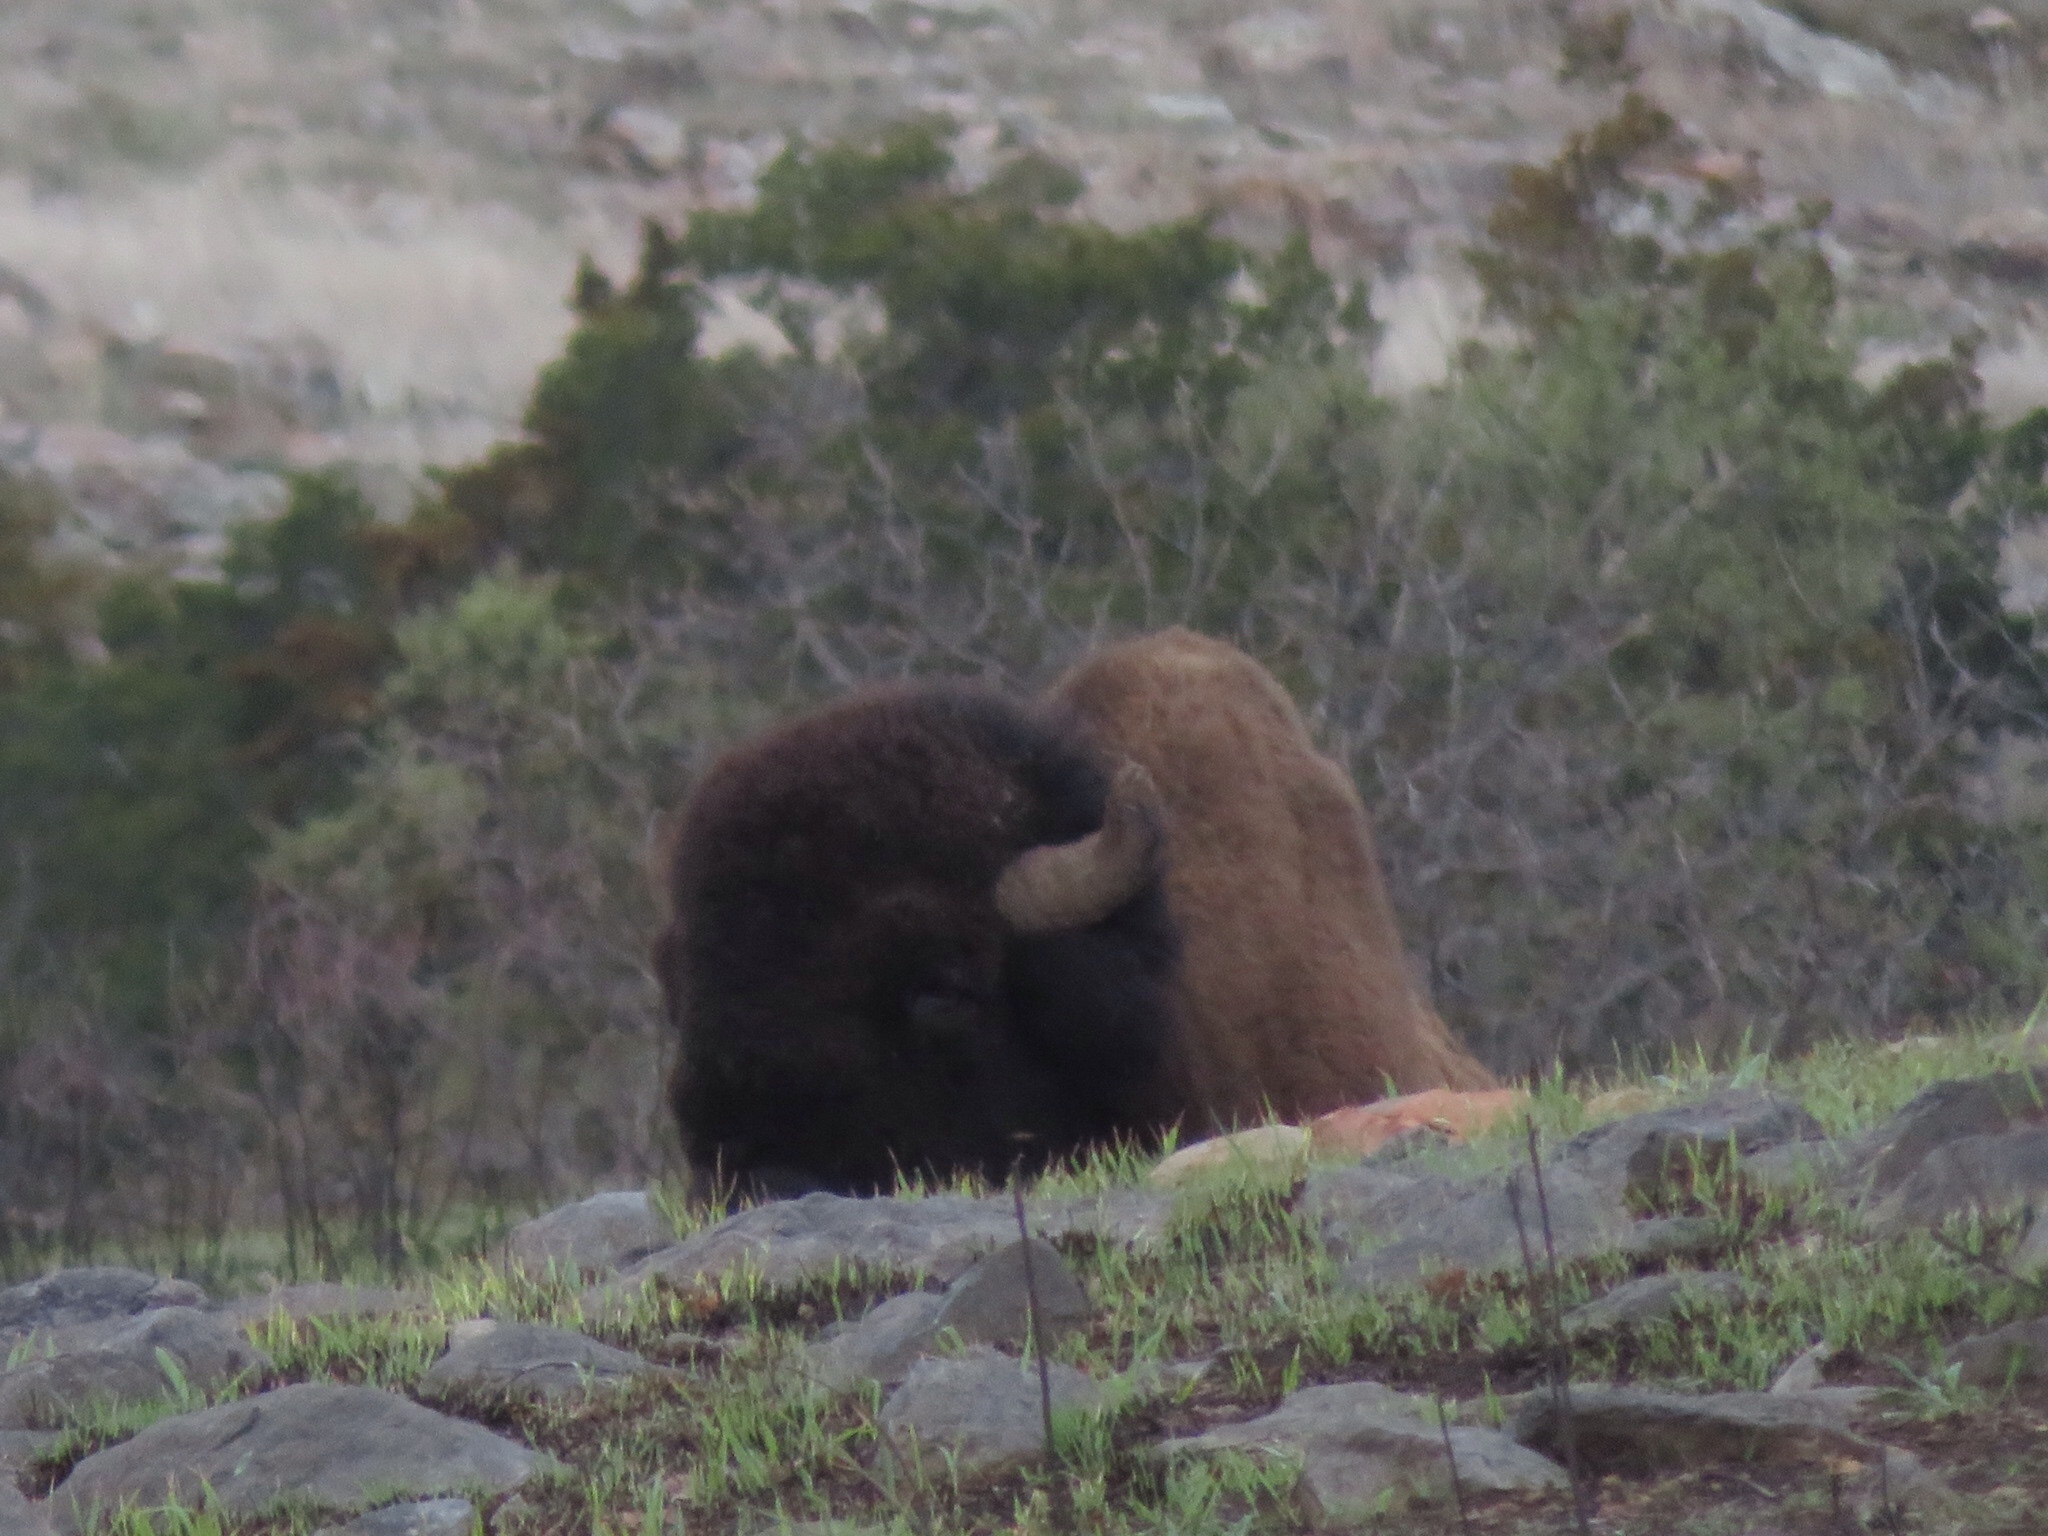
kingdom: Animalia
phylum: Chordata
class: Mammalia
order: Artiodactyla
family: Bovidae
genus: Bison
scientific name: Bison bison
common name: American bison
